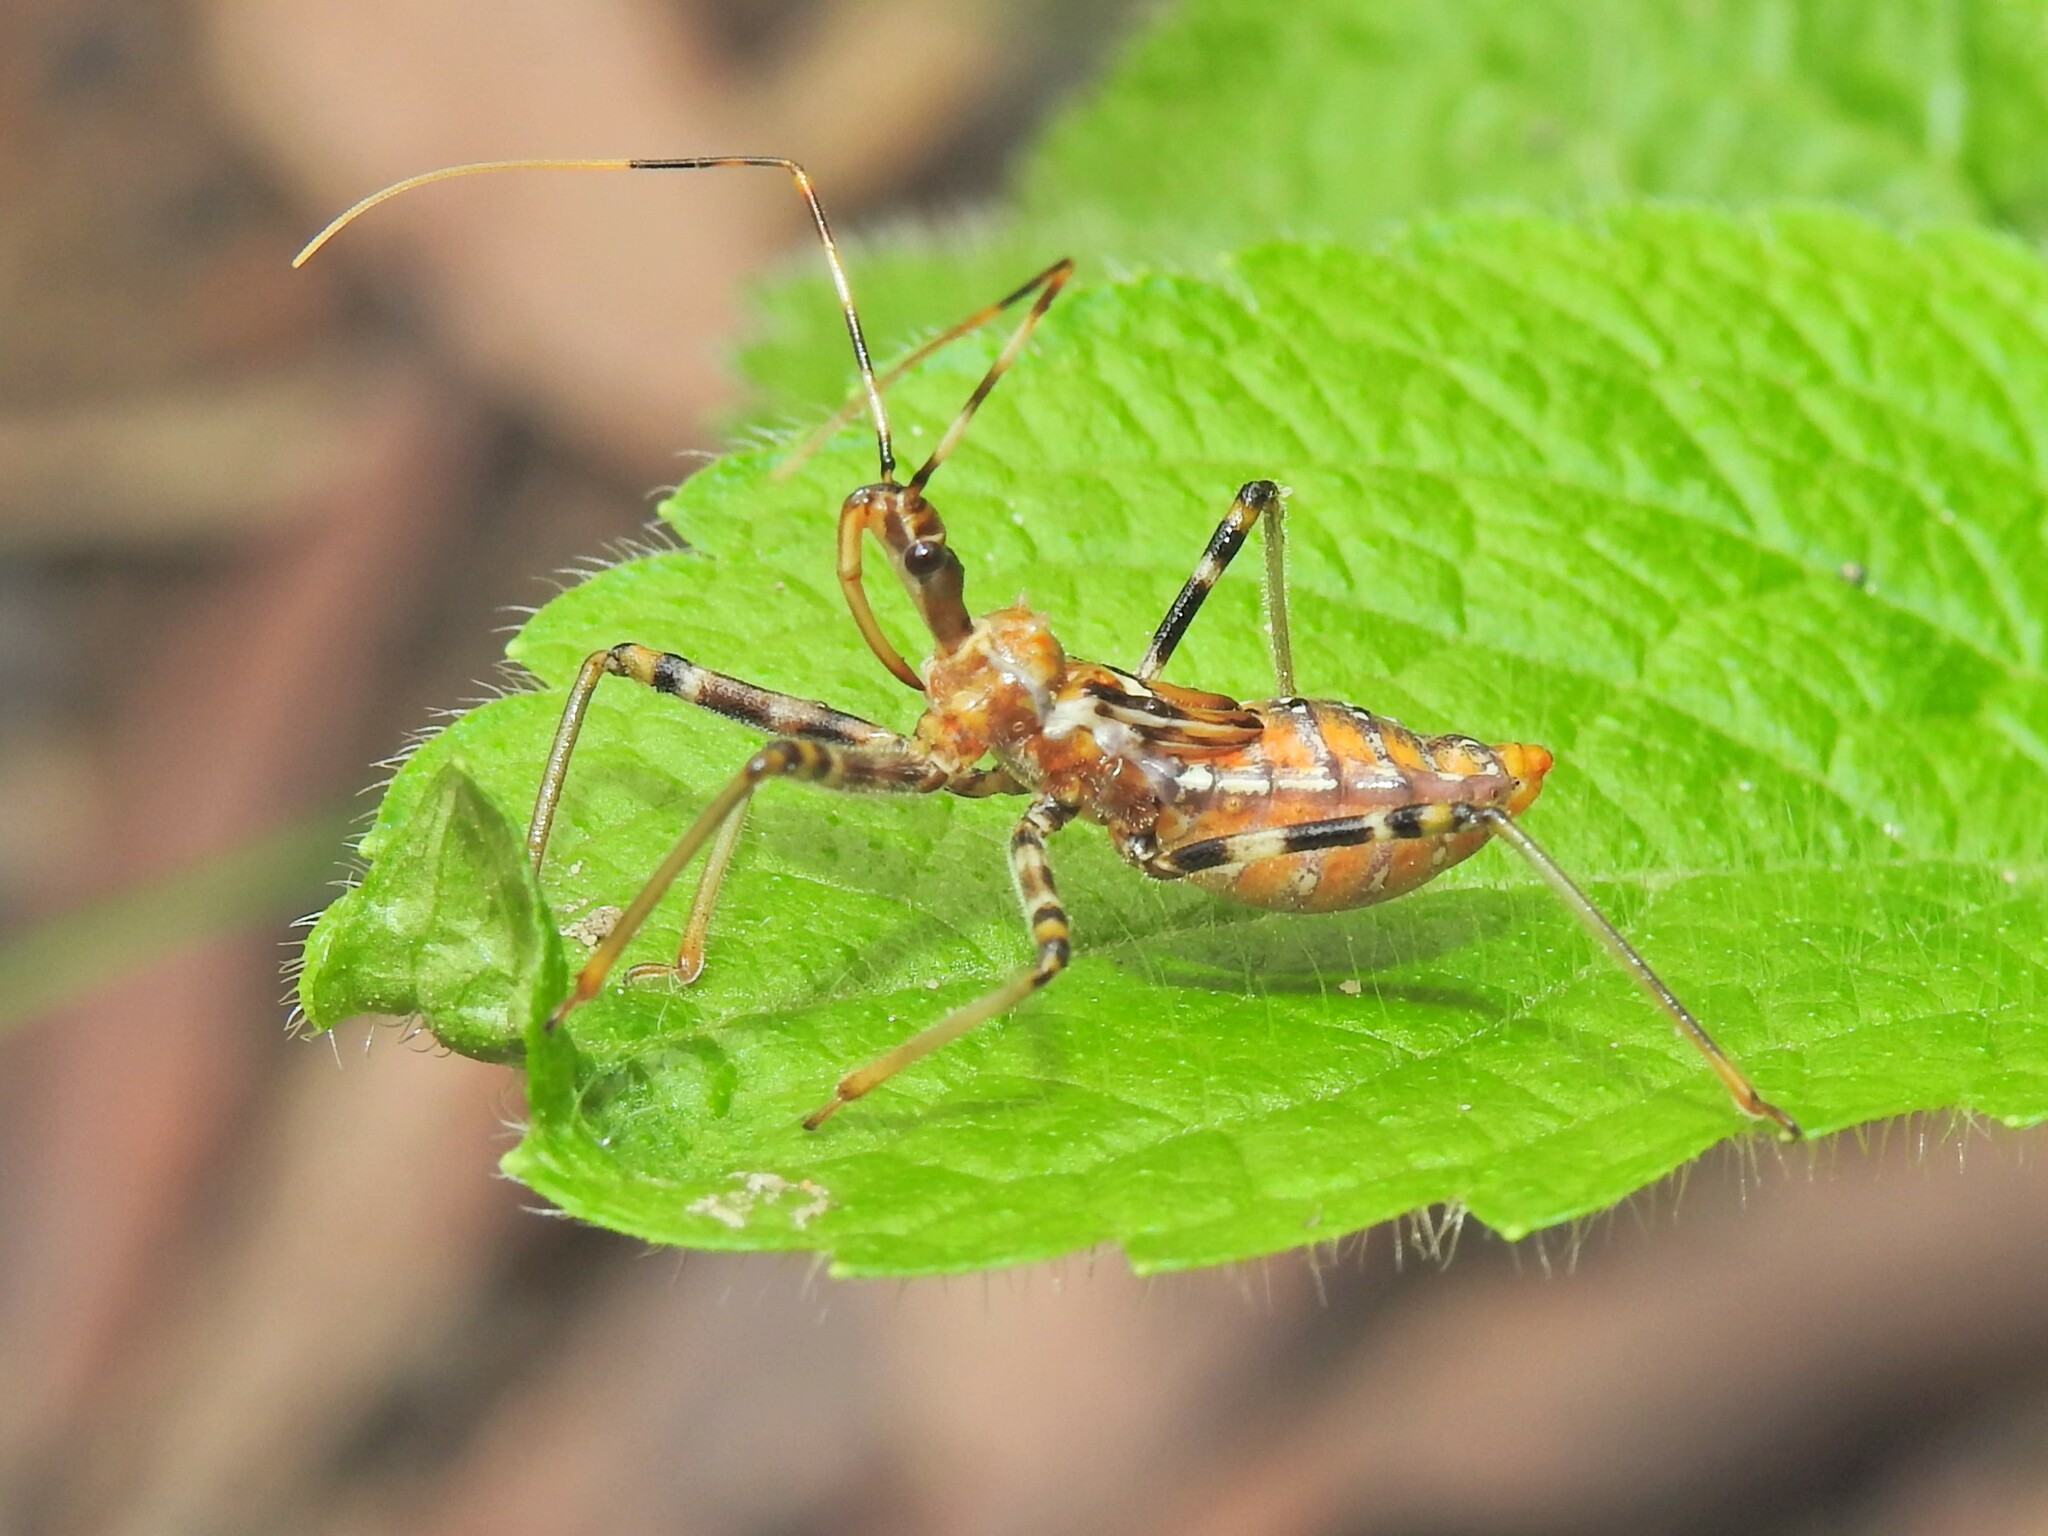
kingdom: Animalia
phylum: Arthropoda
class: Insecta
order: Hemiptera
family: Reduviidae
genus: Pristhesancus
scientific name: Pristhesancus plagipennis
